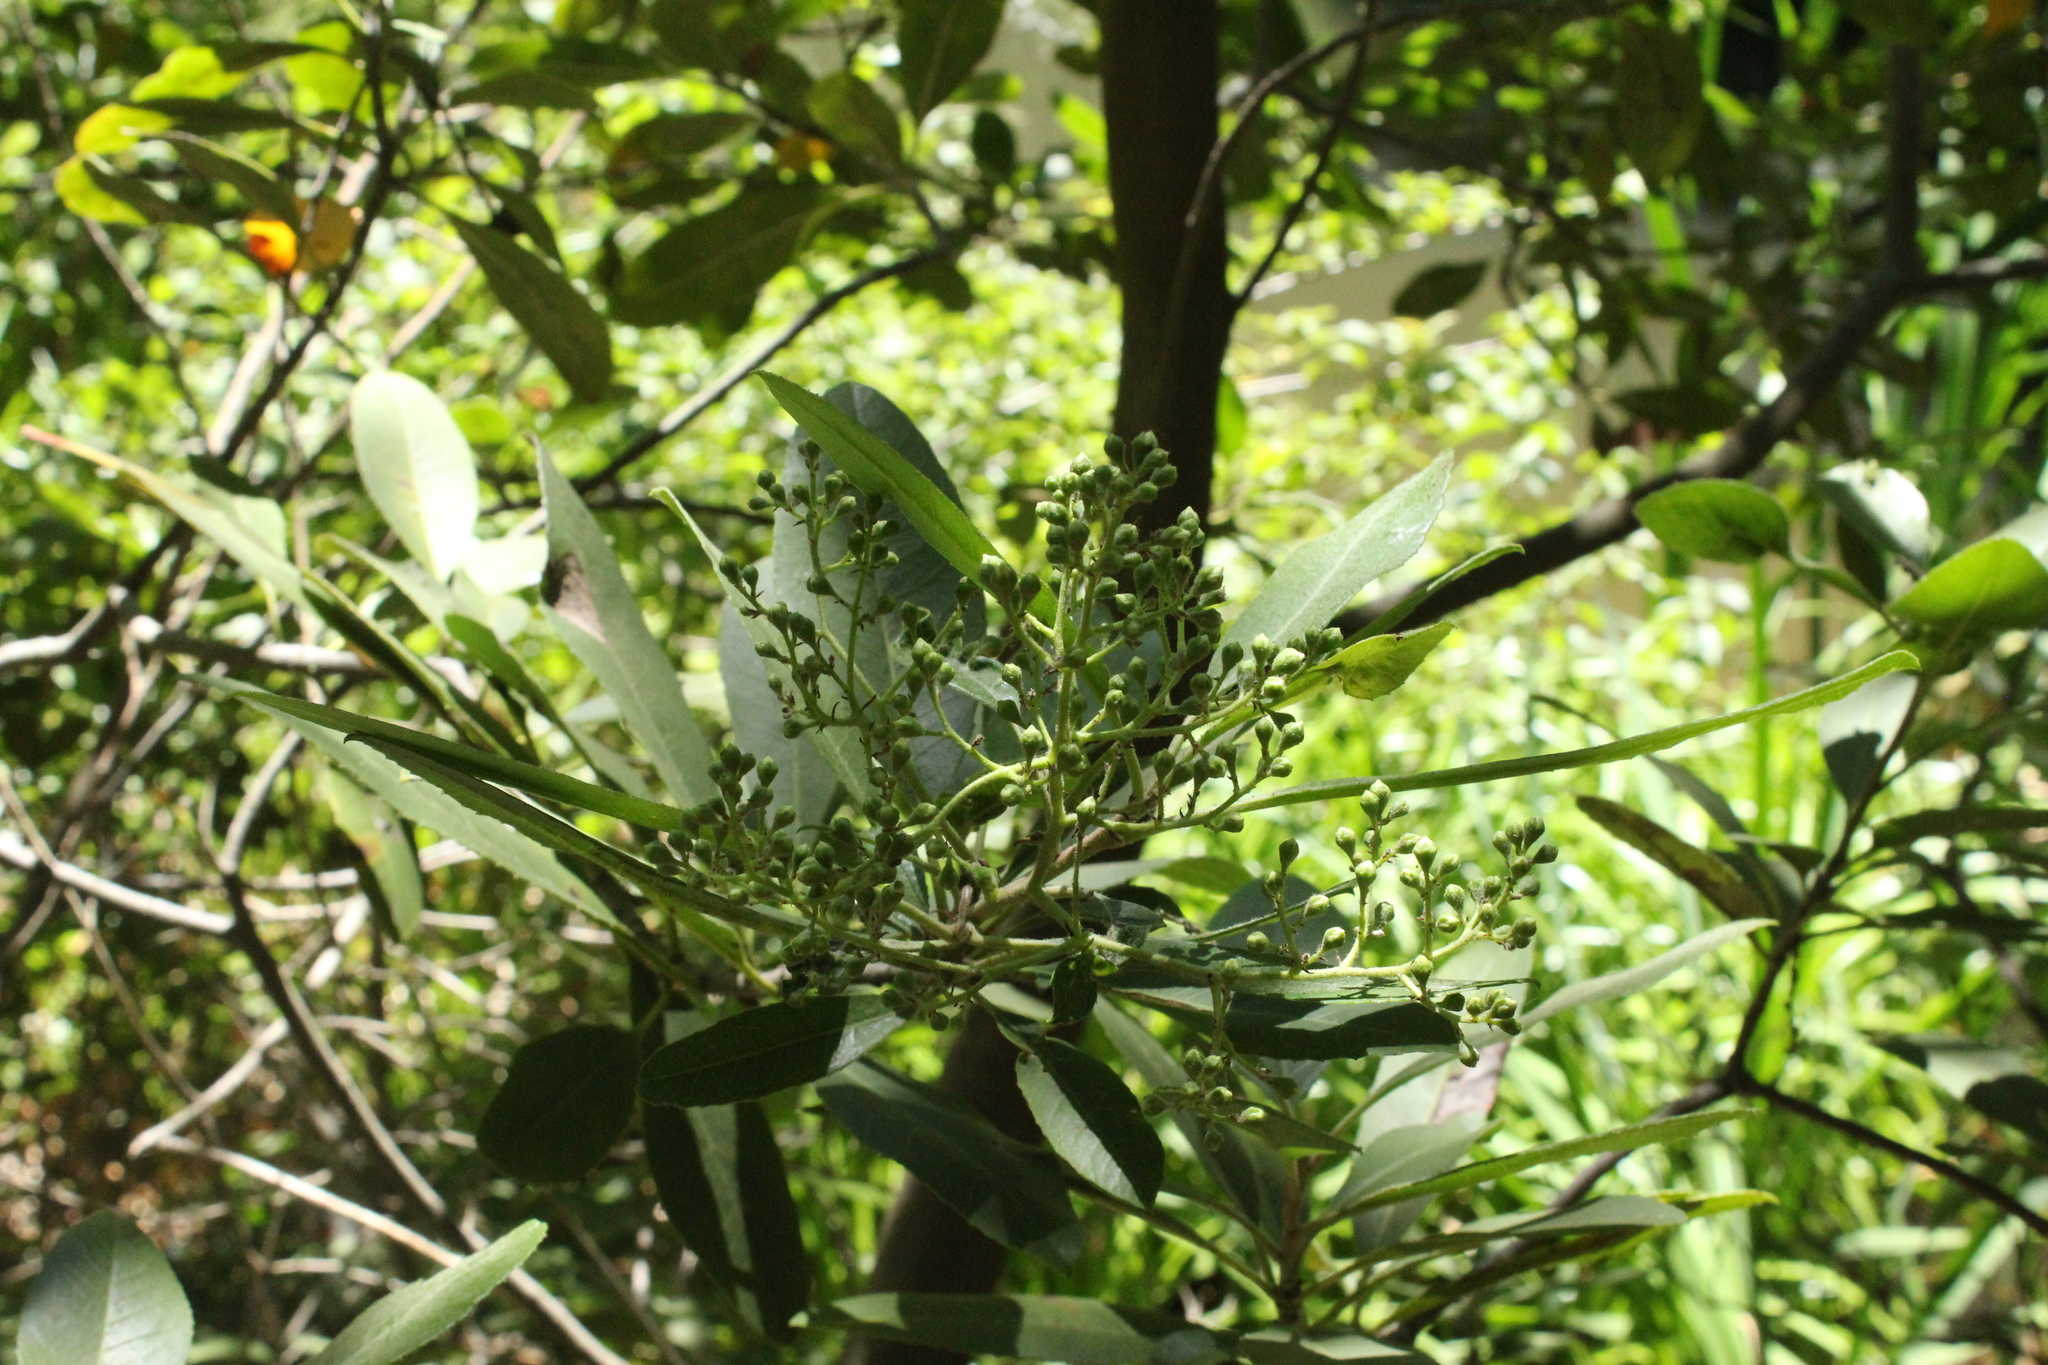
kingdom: Plantae
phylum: Tracheophyta
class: Magnoliopsida
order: Rosales
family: Rosaceae
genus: Heteromeles
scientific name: Heteromeles arbutifolia
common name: California-holly
